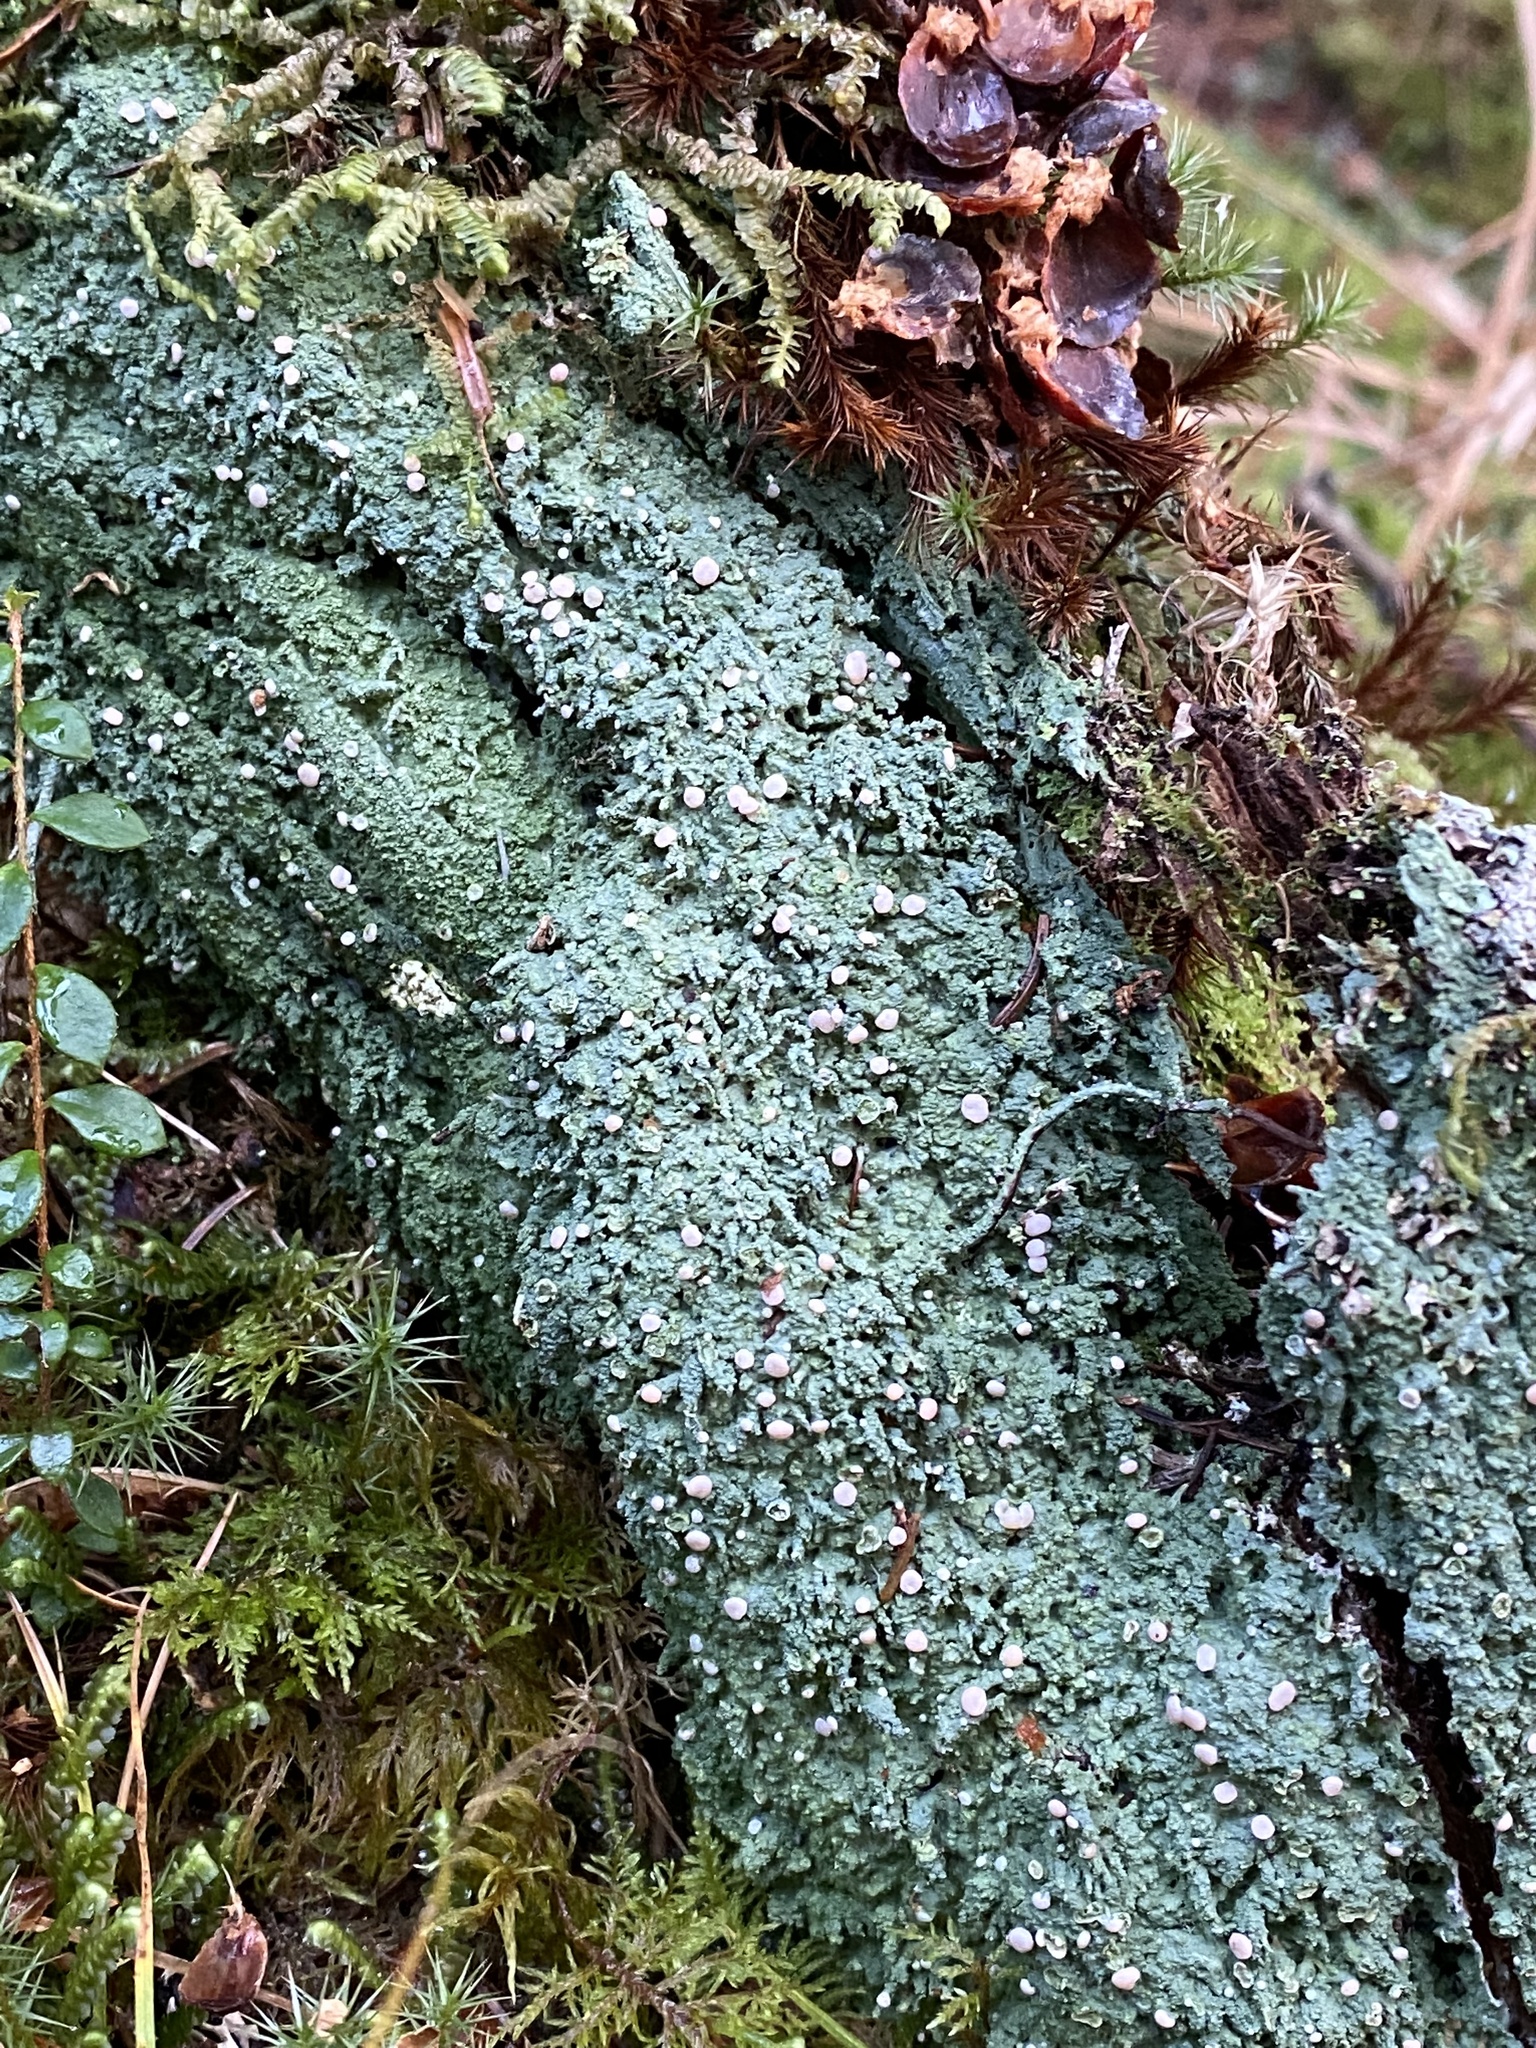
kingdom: Fungi
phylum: Ascomycota
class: Lecanoromycetes
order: Pertusariales
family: Icmadophilaceae
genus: Icmadophila
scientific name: Icmadophila ericetorum
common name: Candy lichen
